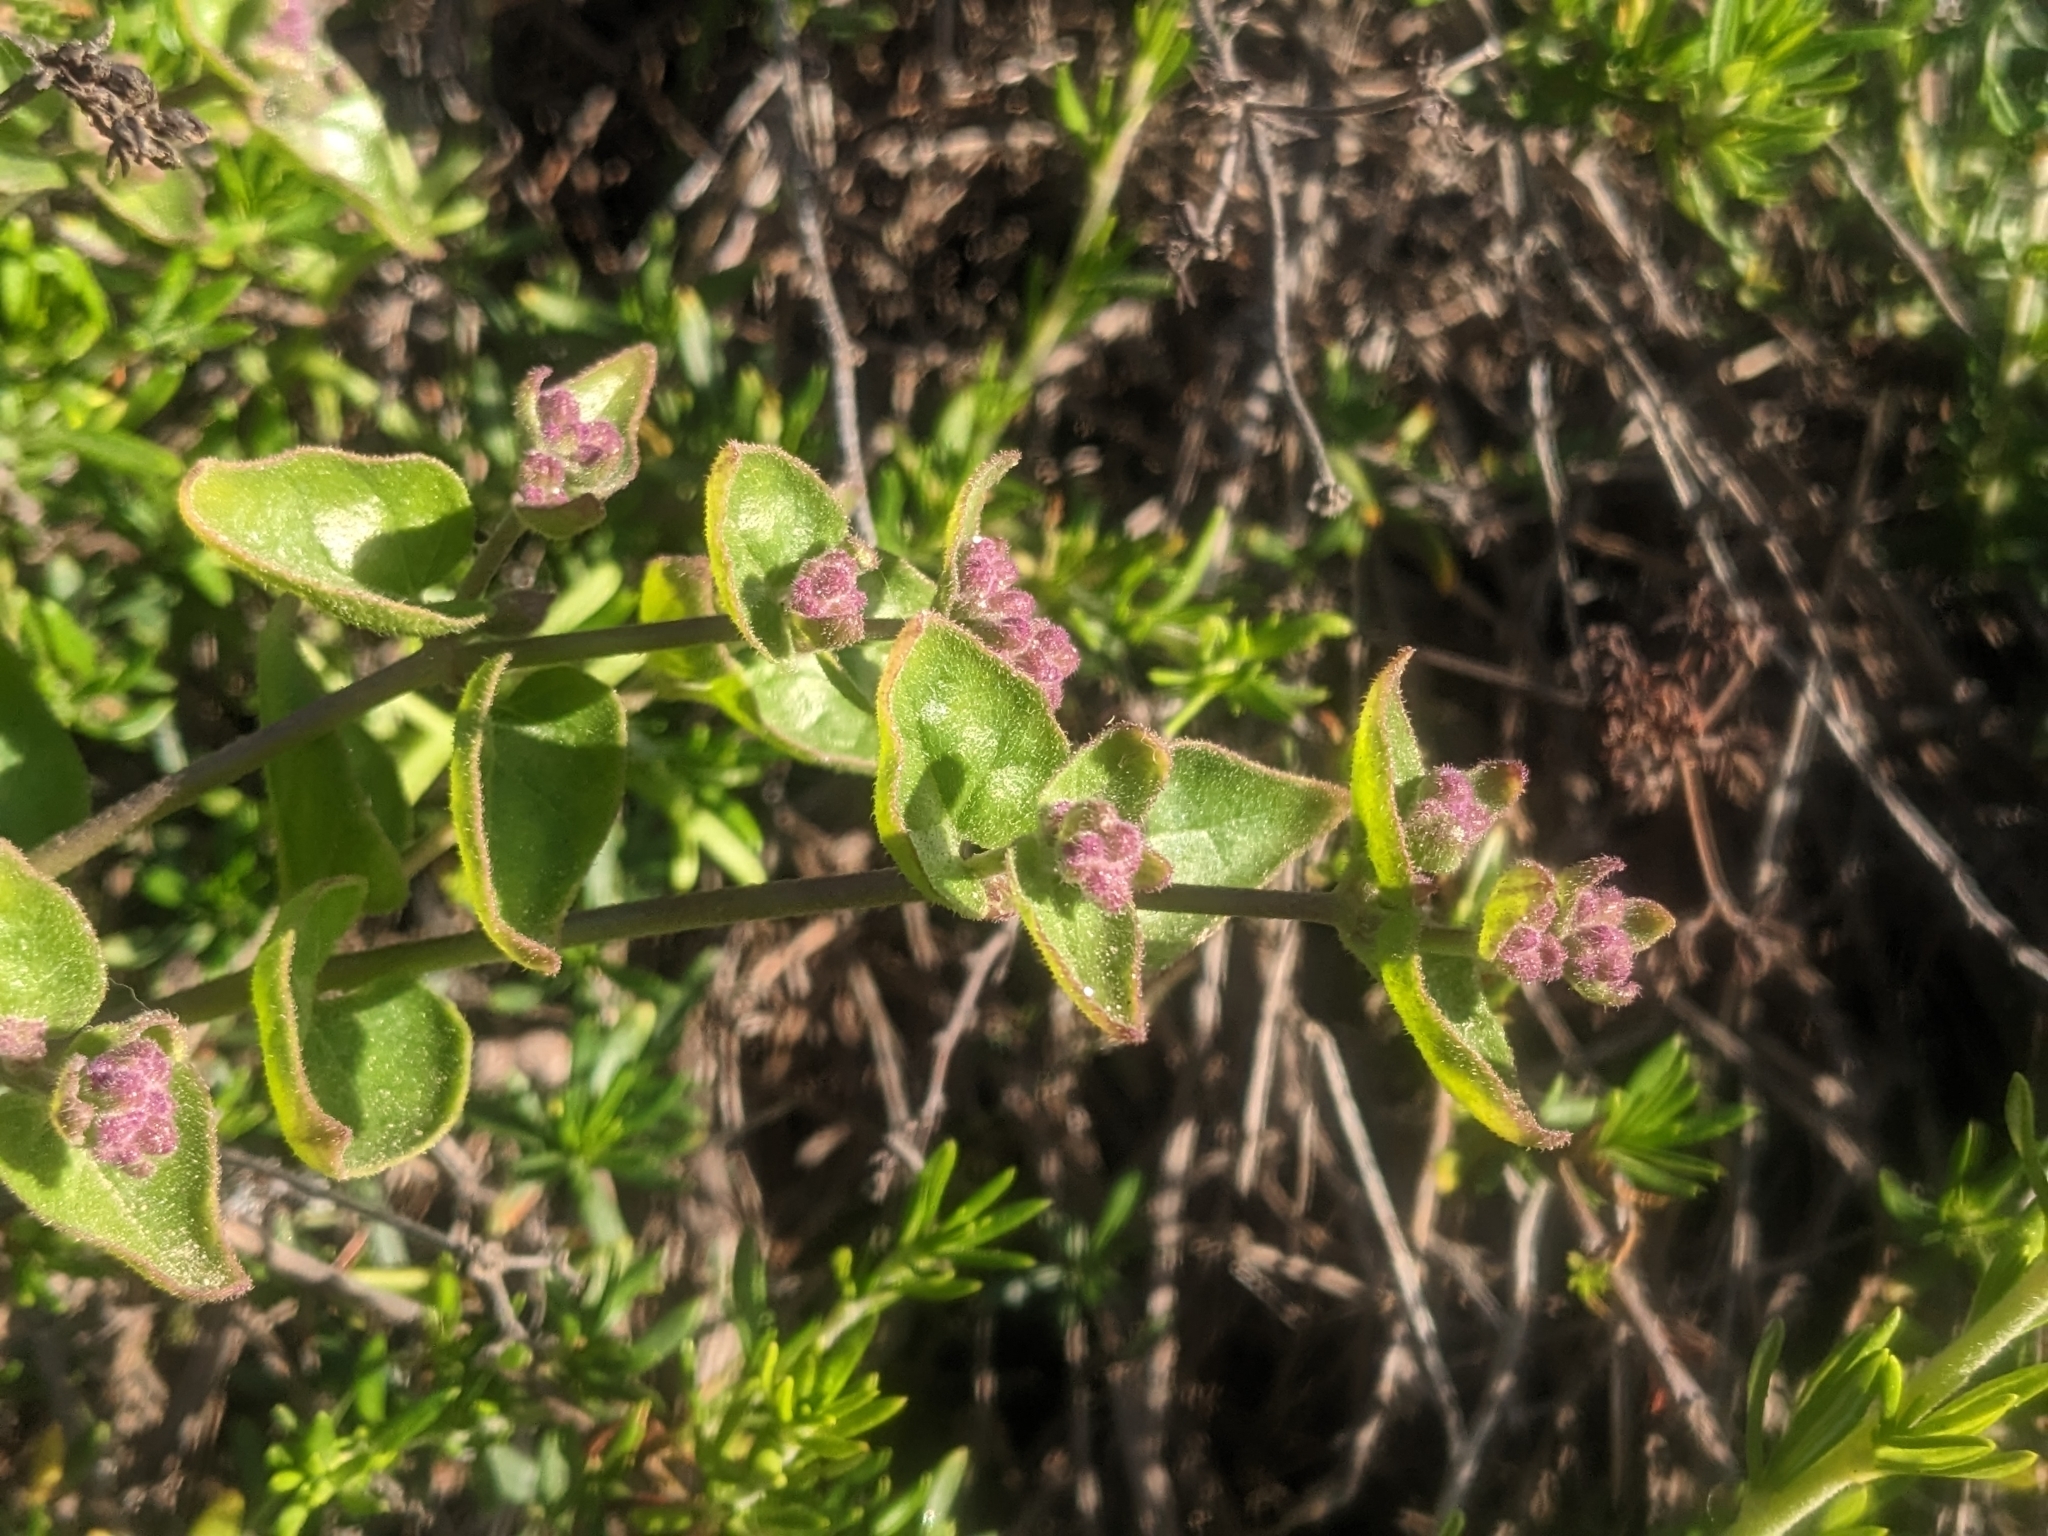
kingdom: Plantae
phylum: Tracheophyta
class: Magnoliopsida
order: Caryophyllales
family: Nyctaginaceae
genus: Mirabilis
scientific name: Mirabilis laevis
